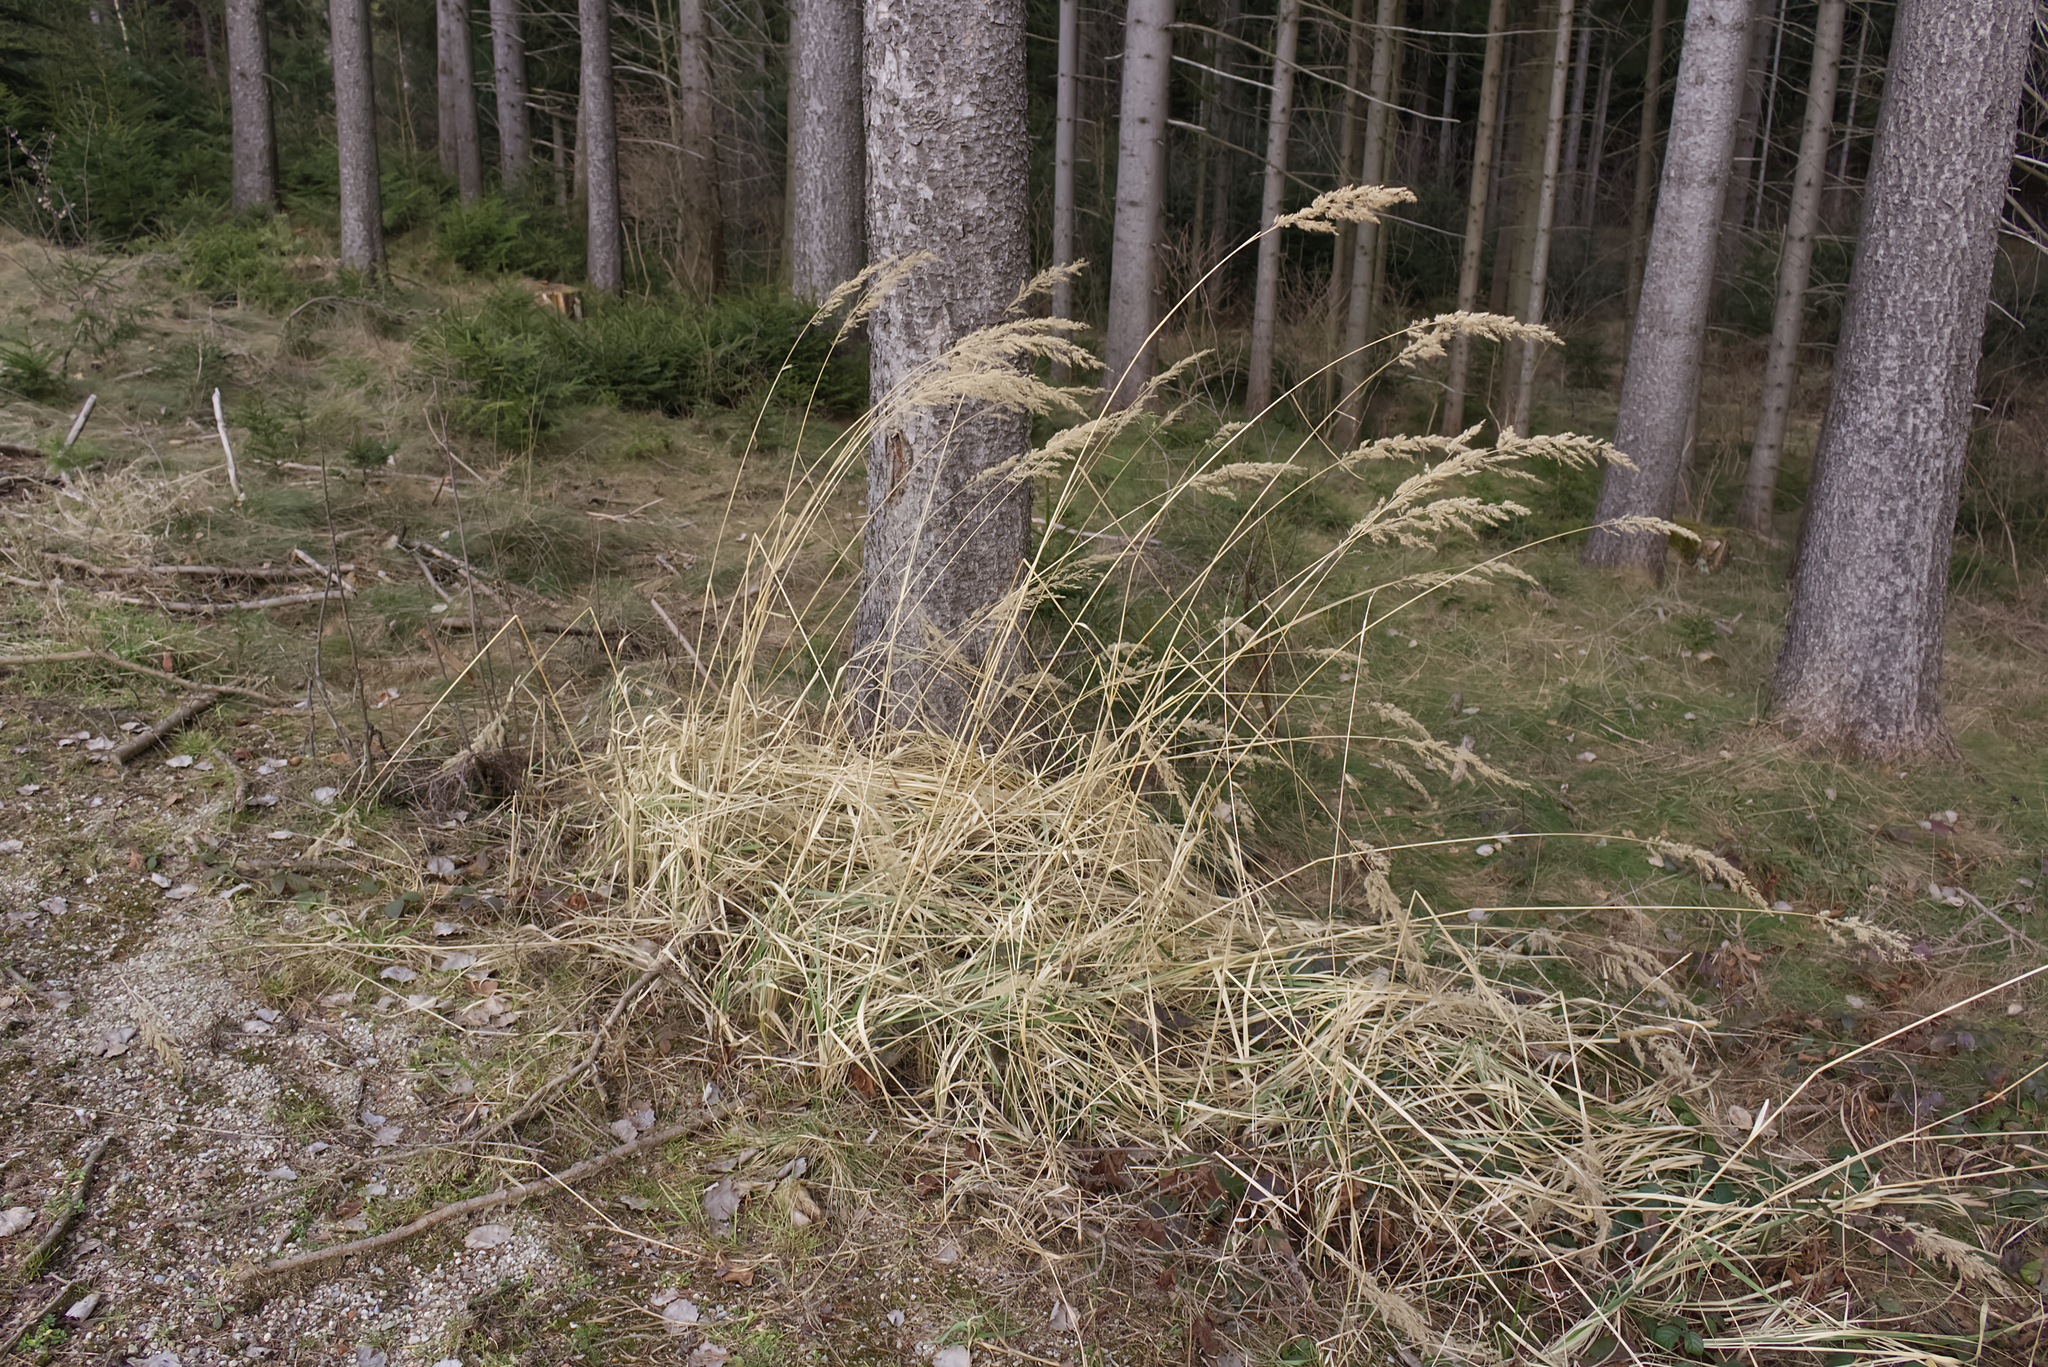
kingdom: Plantae
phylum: Tracheophyta
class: Liliopsida
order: Poales
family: Poaceae
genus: Calamagrostis
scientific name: Calamagrostis epigejos
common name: Wood small-reed
